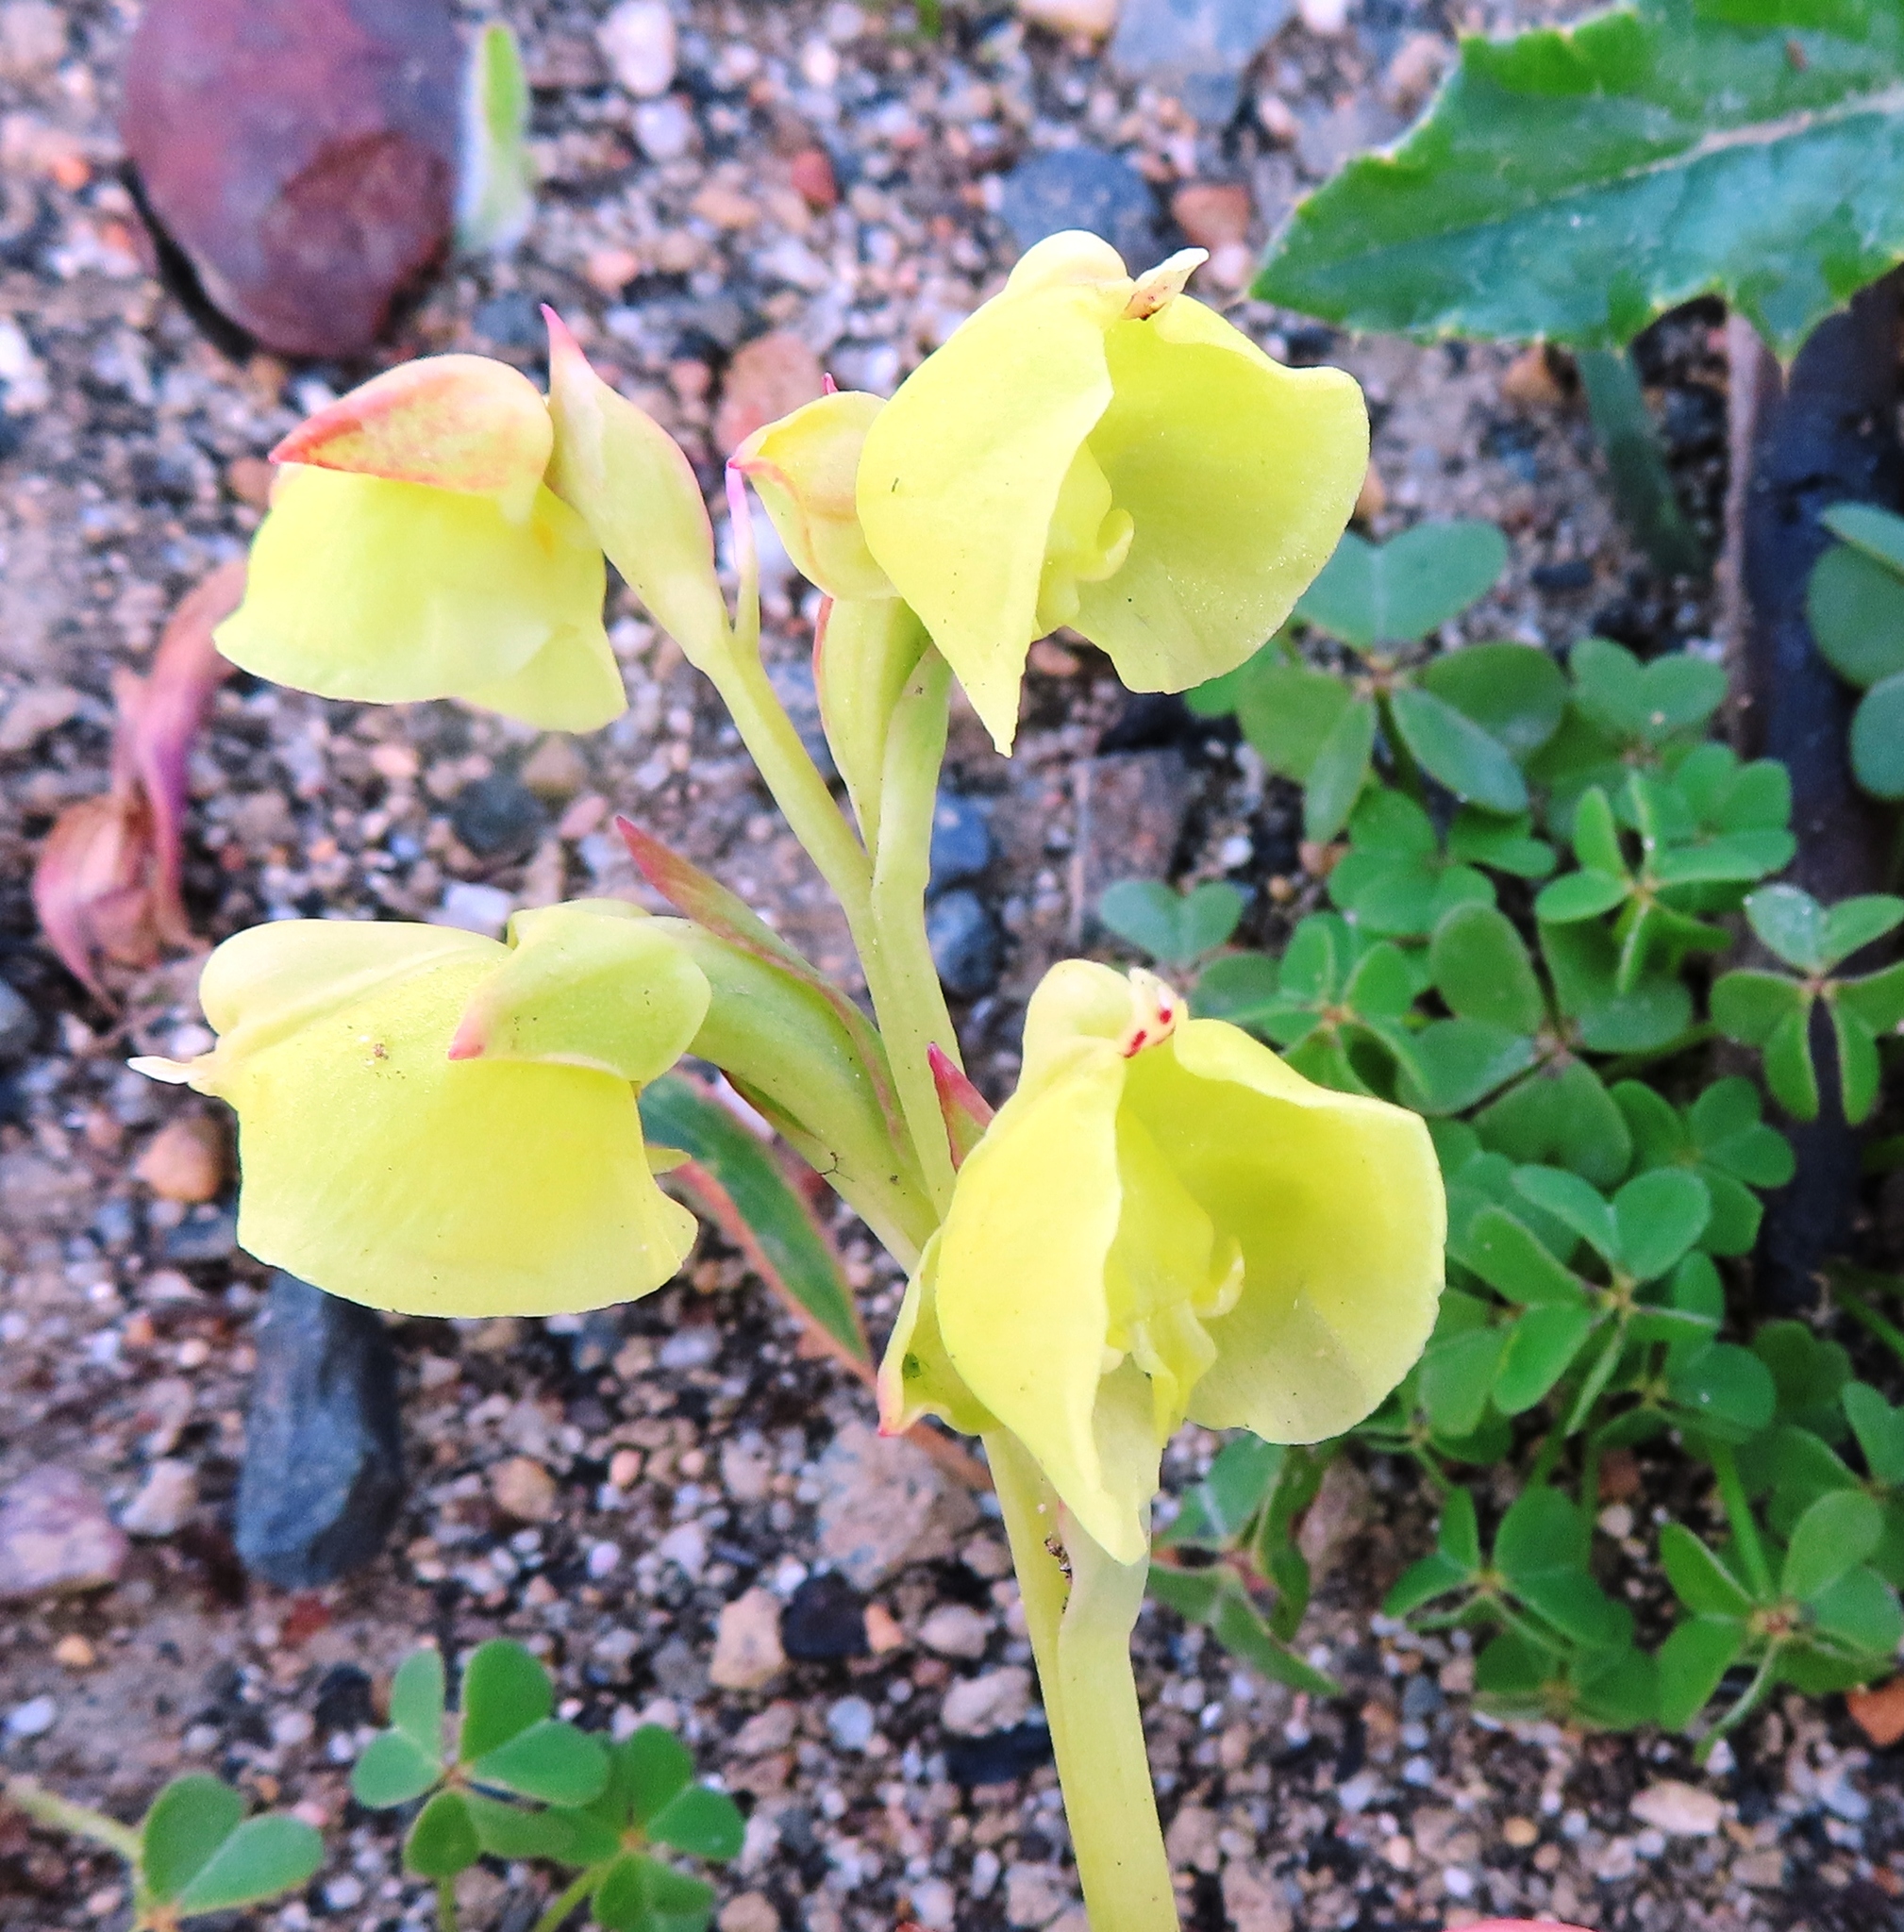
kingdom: Plantae
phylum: Tracheophyta
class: Liliopsida
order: Asparagales
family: Orchidaceae
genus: Pterygodium
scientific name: Pterygodium catholicum
